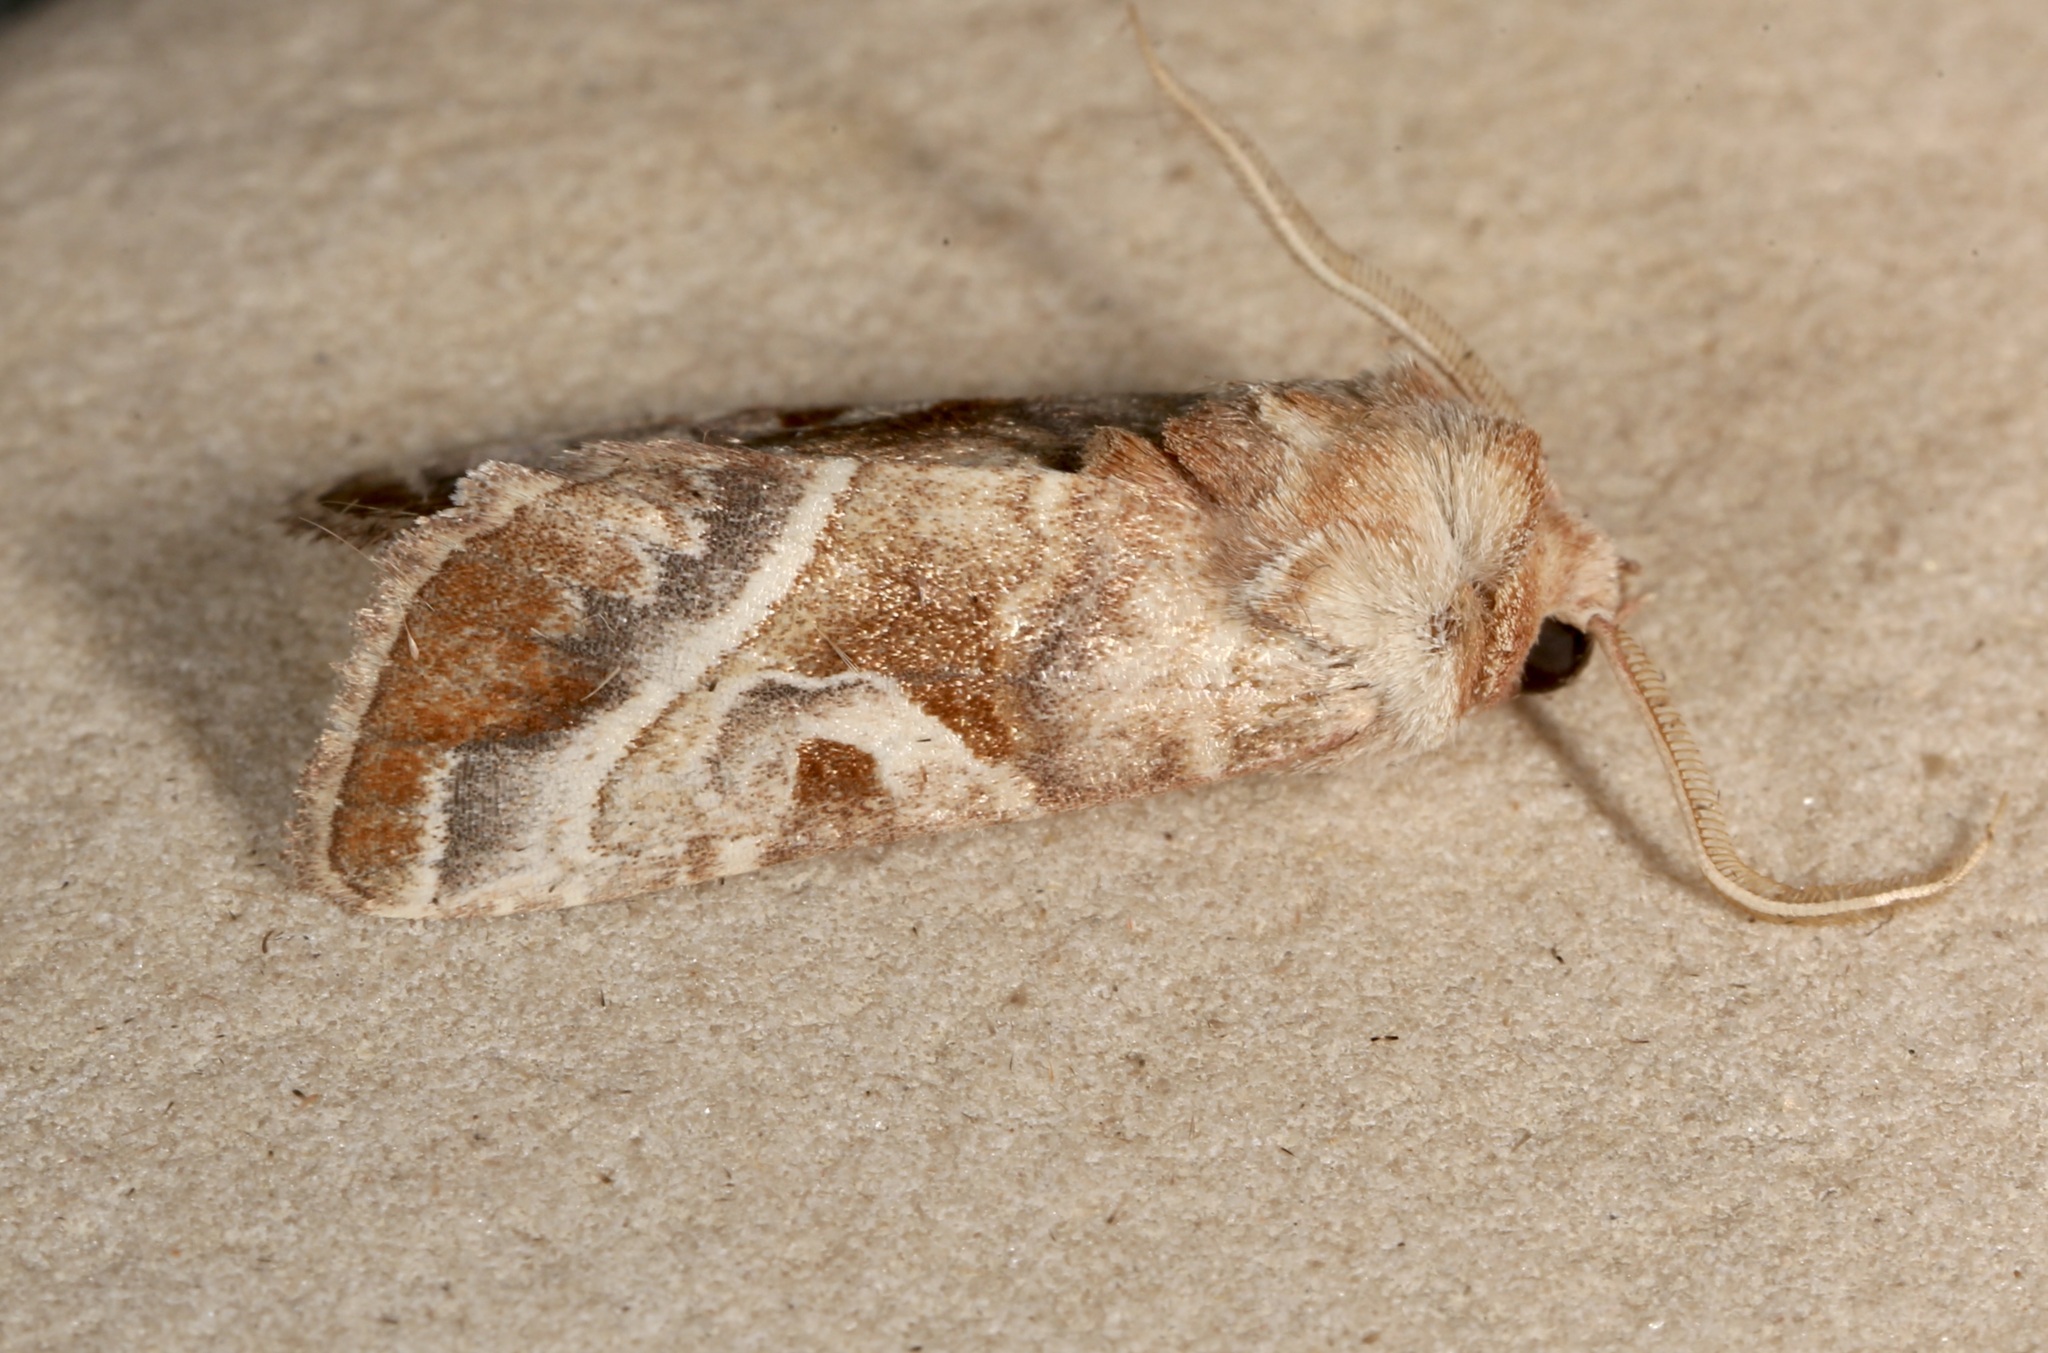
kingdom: Animalia
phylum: Arthropoda
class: Insecta
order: Lepidoptera
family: Noctuidae
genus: Hexorthodes
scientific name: Hexorthodes accurata
